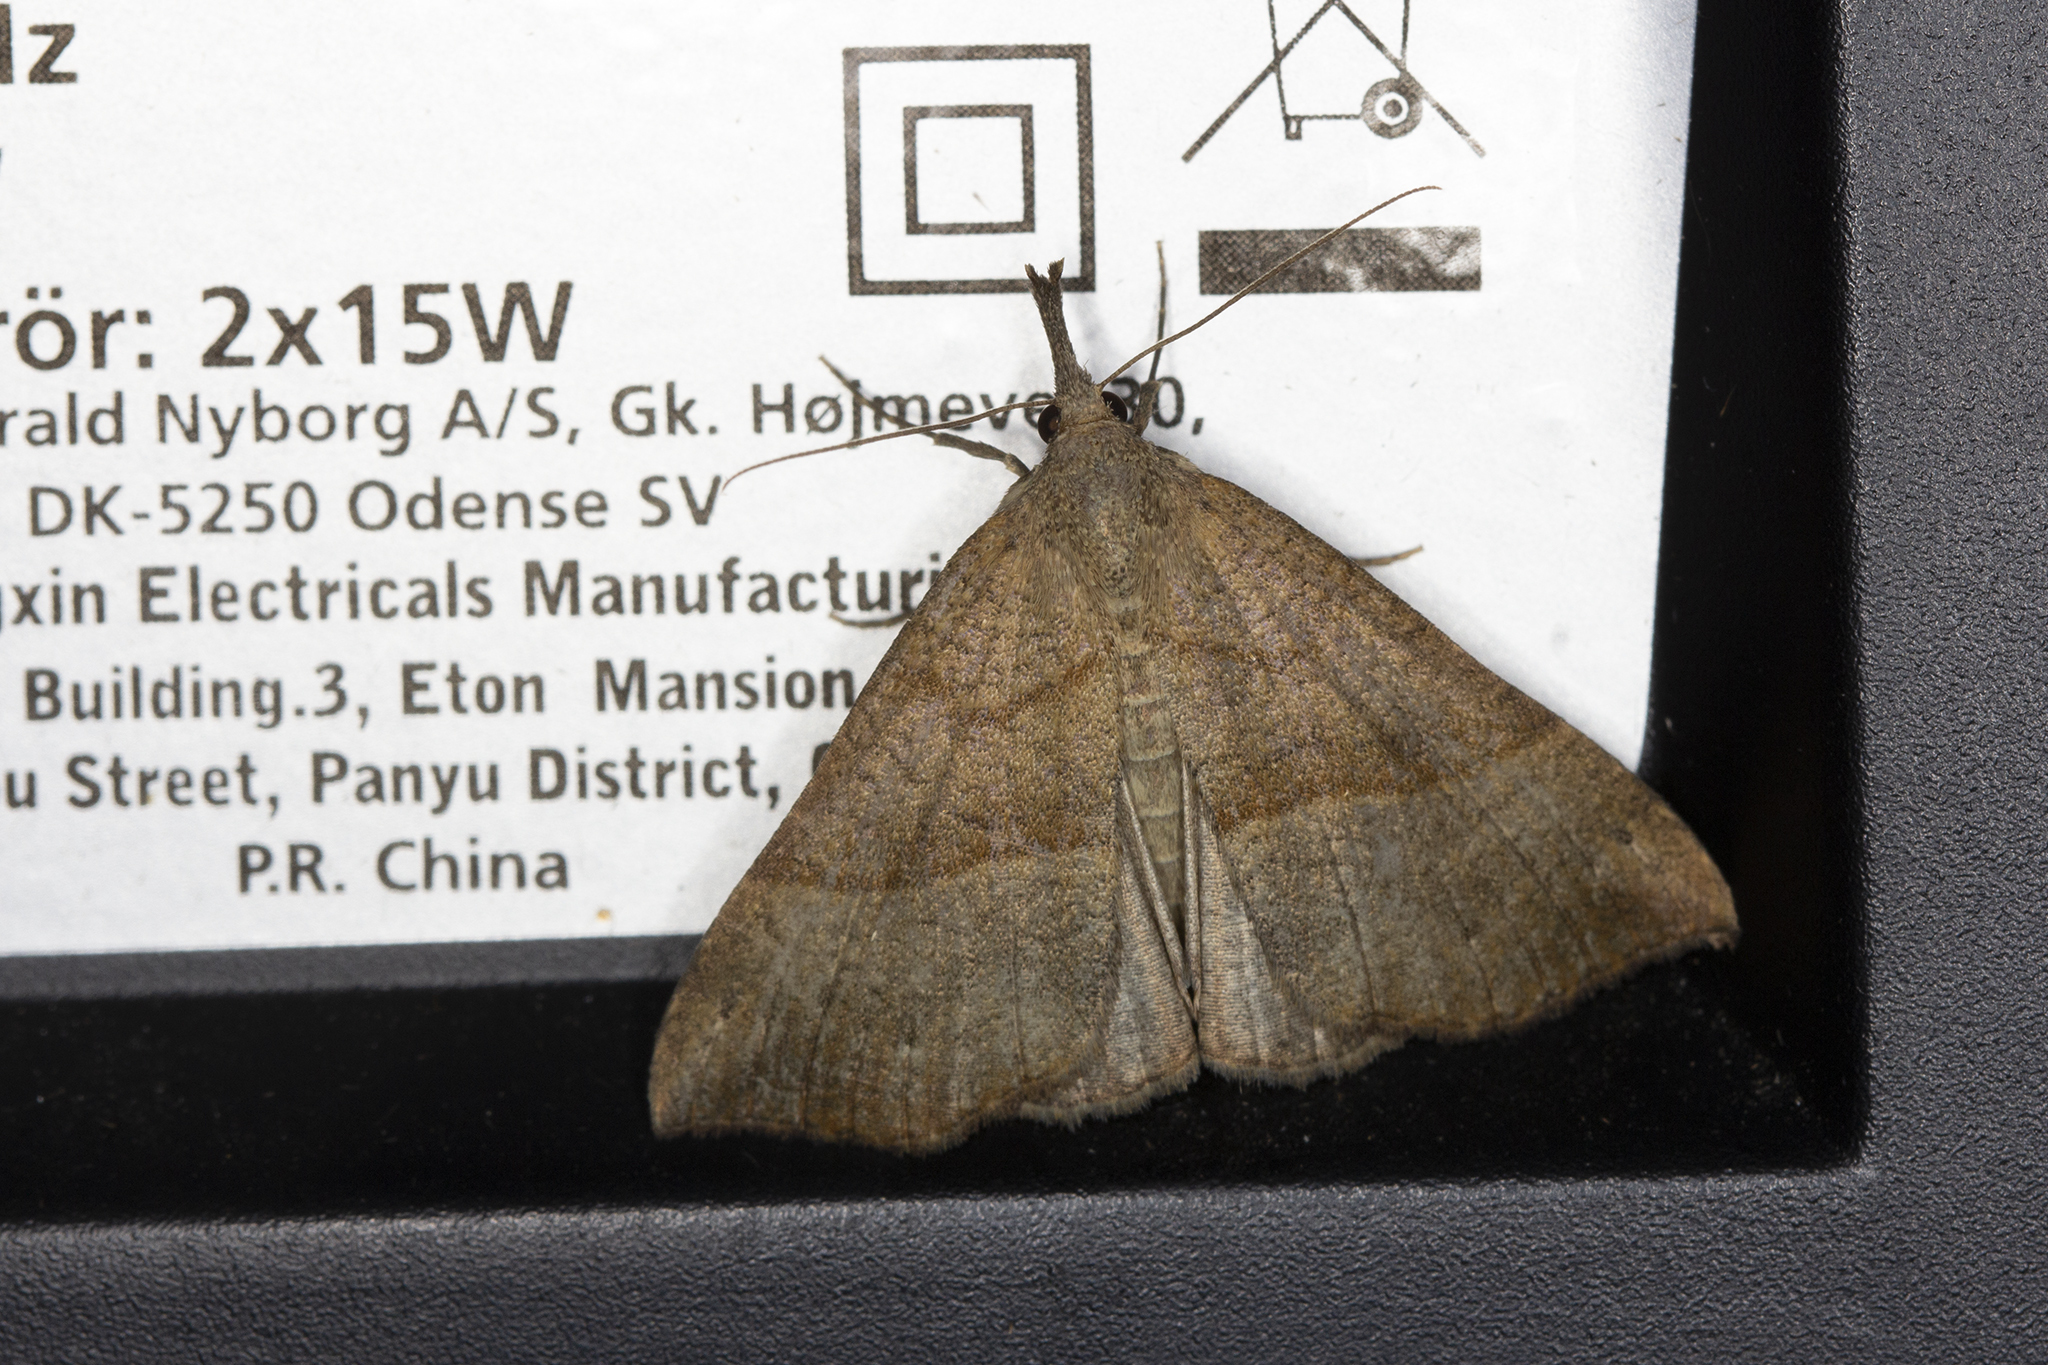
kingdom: Animalia
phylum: Arthropoda
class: Insecta
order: Lepidoptera
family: Erebidae
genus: Hypena
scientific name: Hypena proboscidalis
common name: Snout
